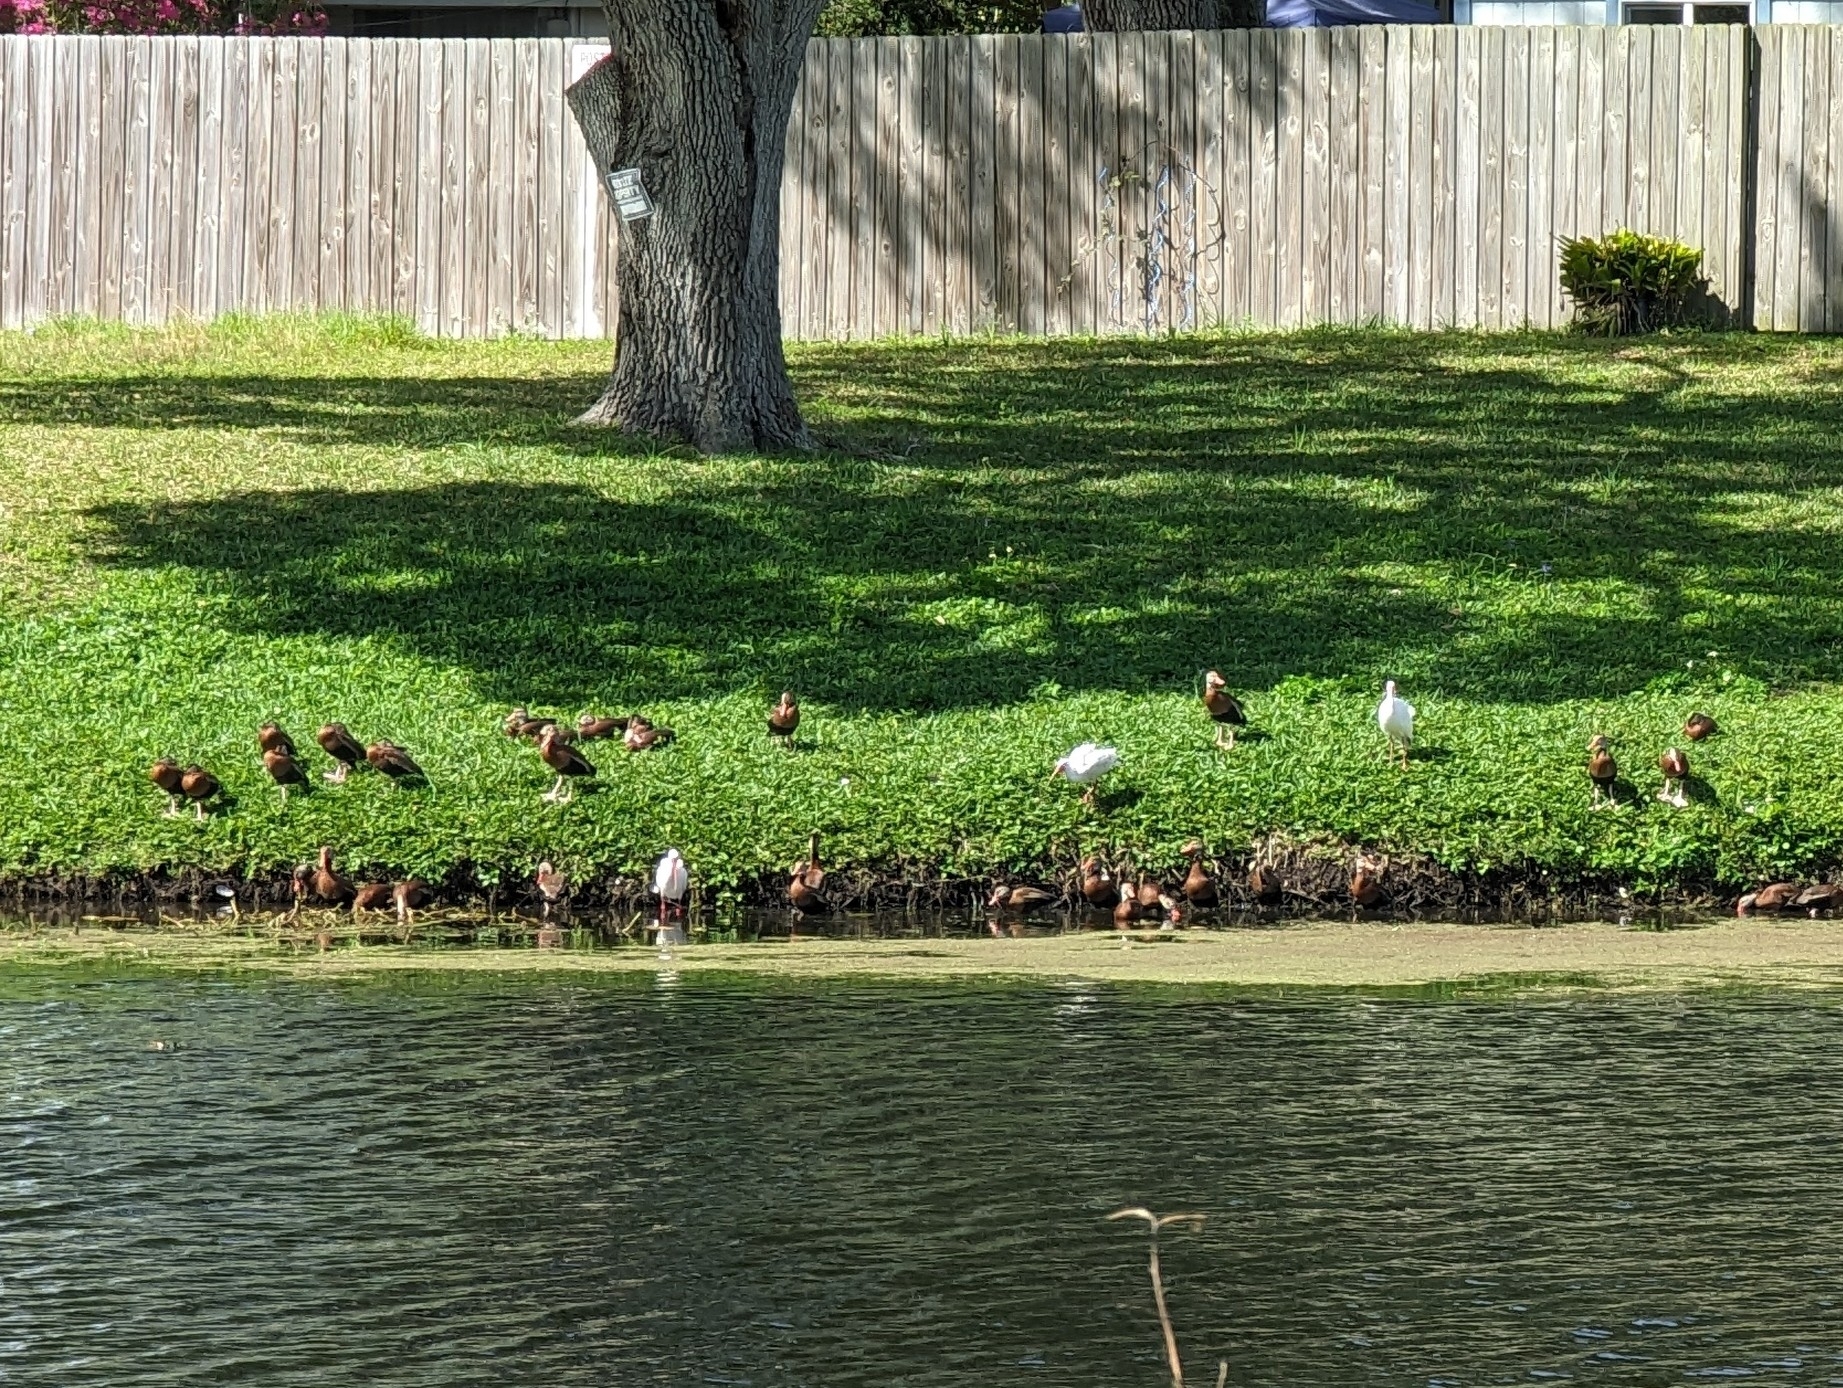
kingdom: Animalia
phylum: Chordata
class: Aves
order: Pelecaniformes
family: Threskiornithidae
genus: Eudocimus
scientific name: Eudocimus albus
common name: White ibis
